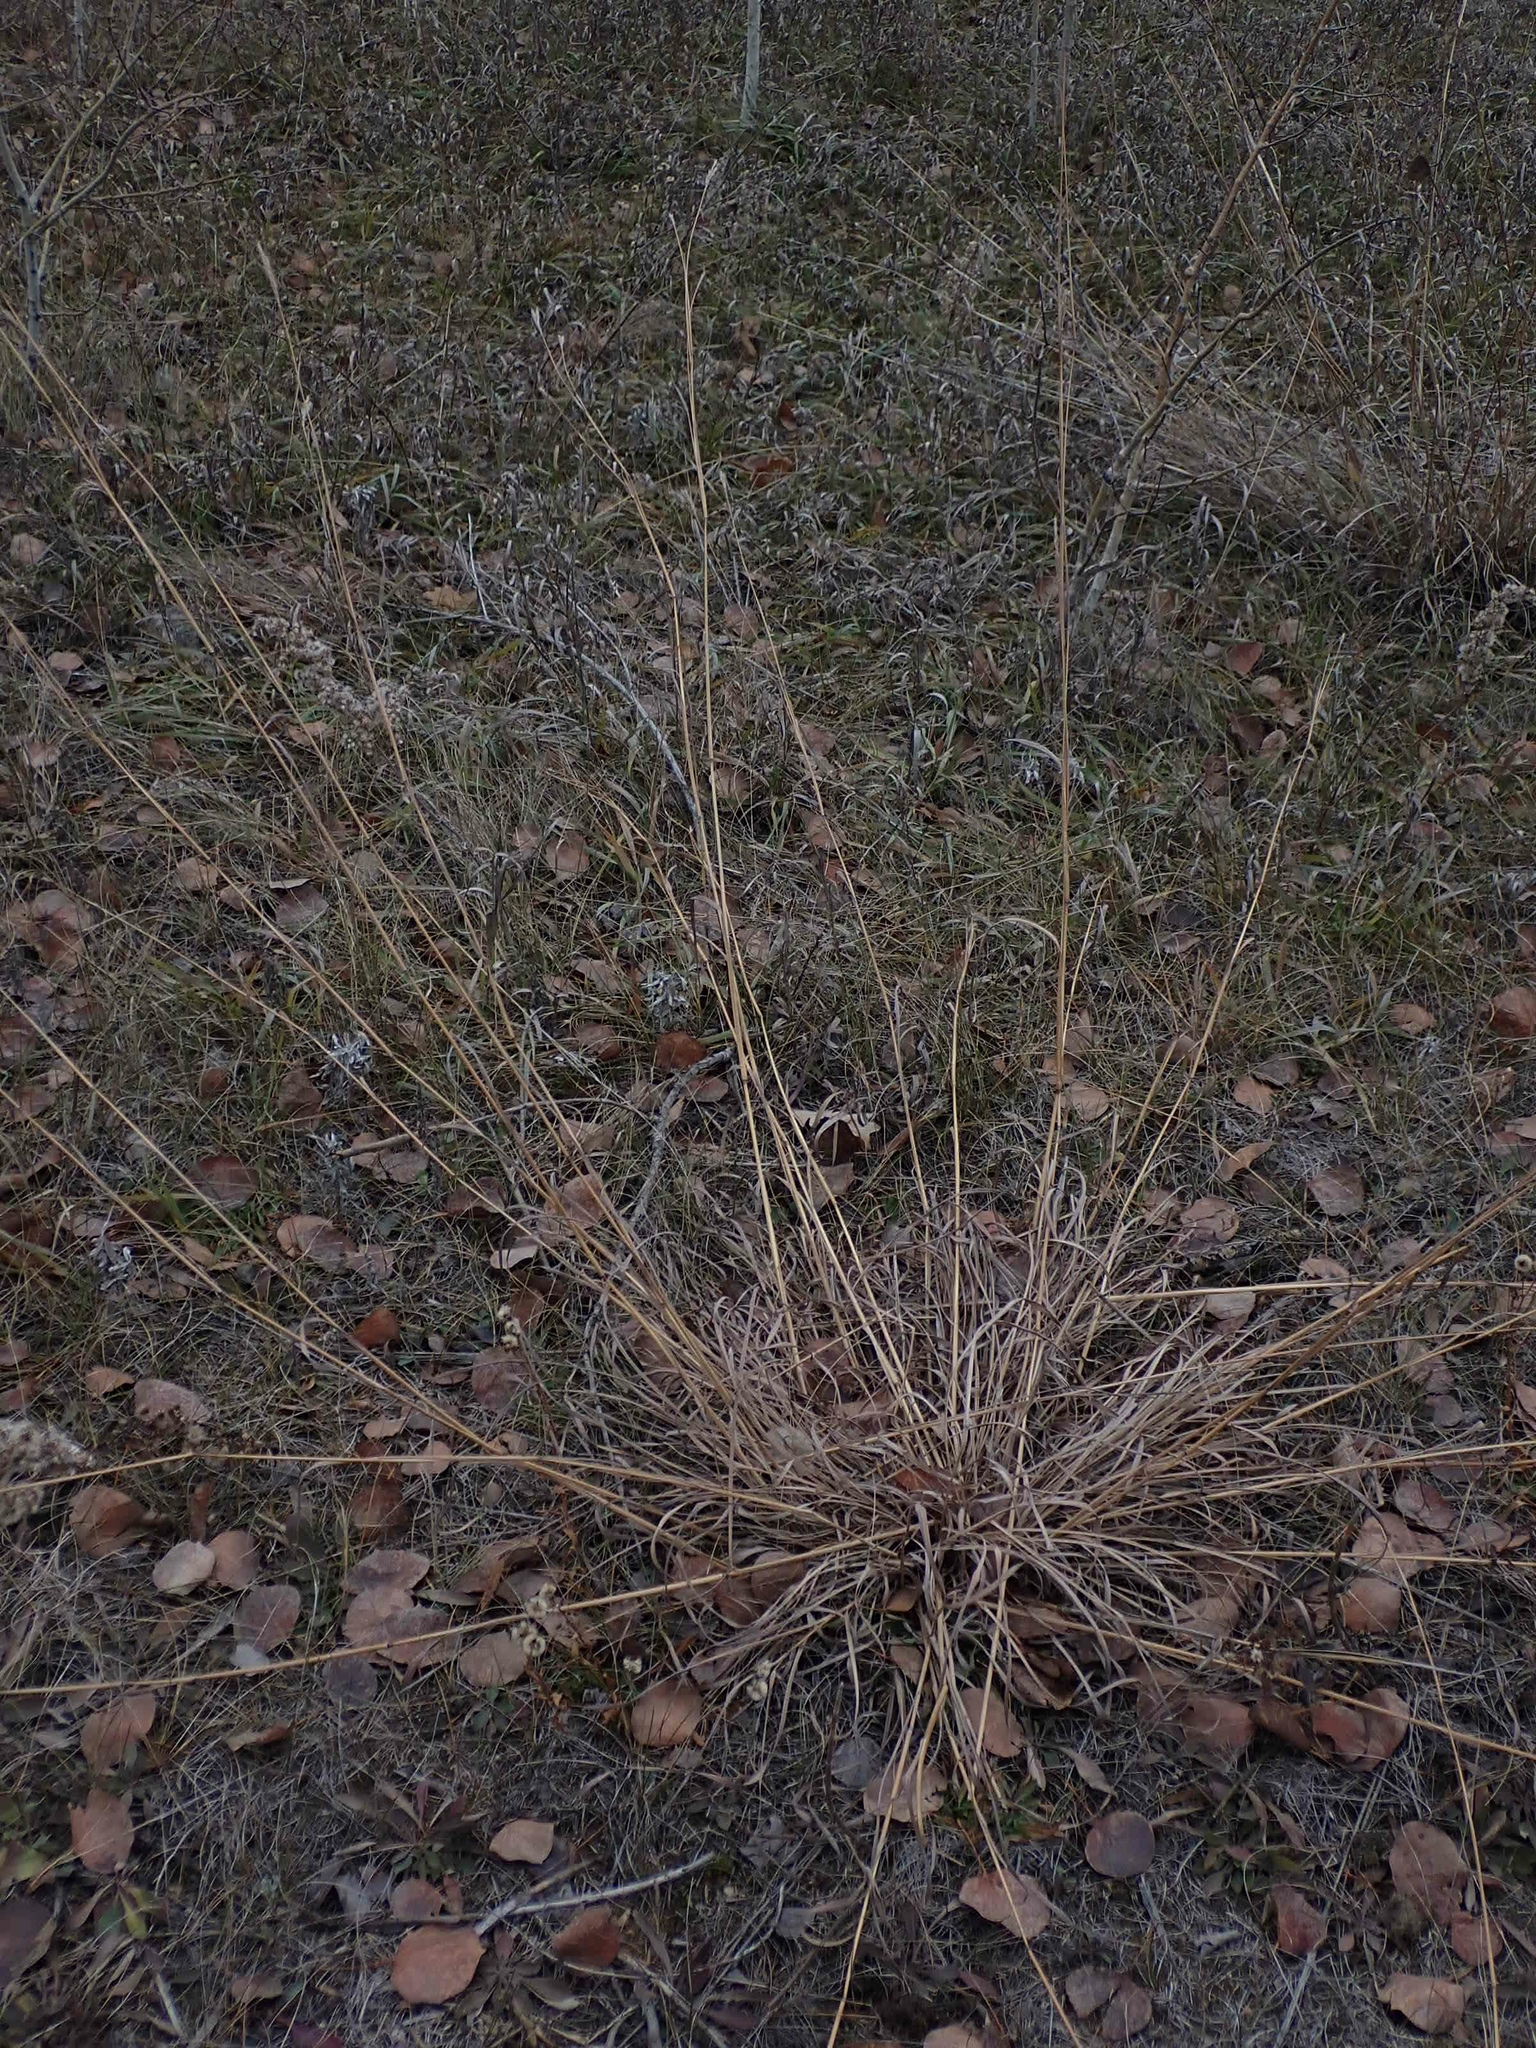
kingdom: Plantae
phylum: Tracheophyta
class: Liliopsida
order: Poales
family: Poaceae
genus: Andropogon
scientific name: Andropogon gerardi
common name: Big bluestem
